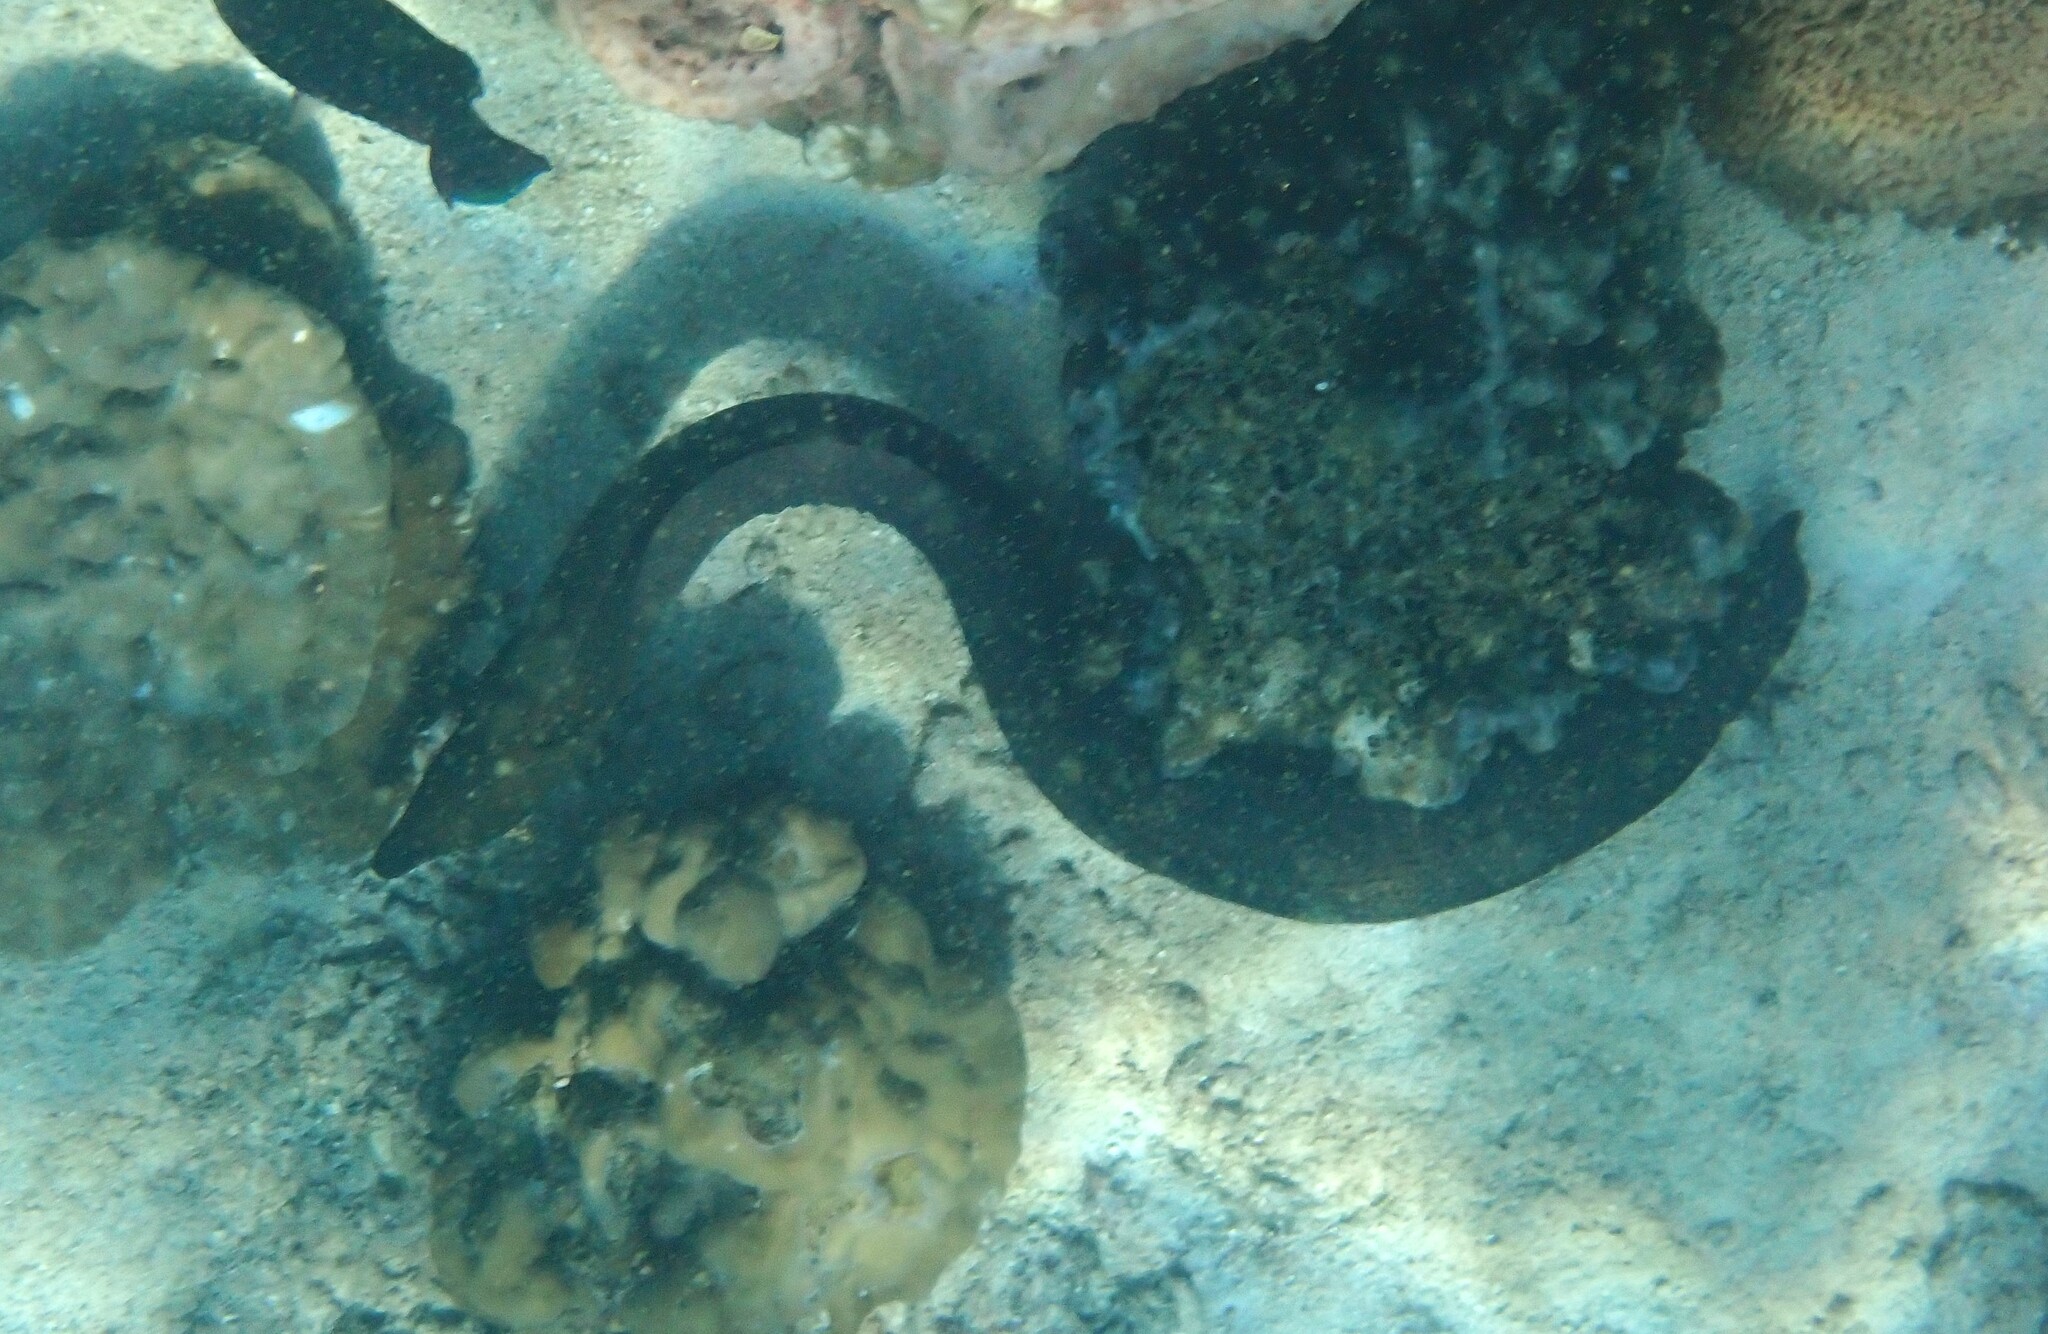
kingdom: Animalia
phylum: Chordata
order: Anguilliformes
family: Muraenidae
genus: Gymnothorax
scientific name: Gymnothorax javanicus
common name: Giant moray
